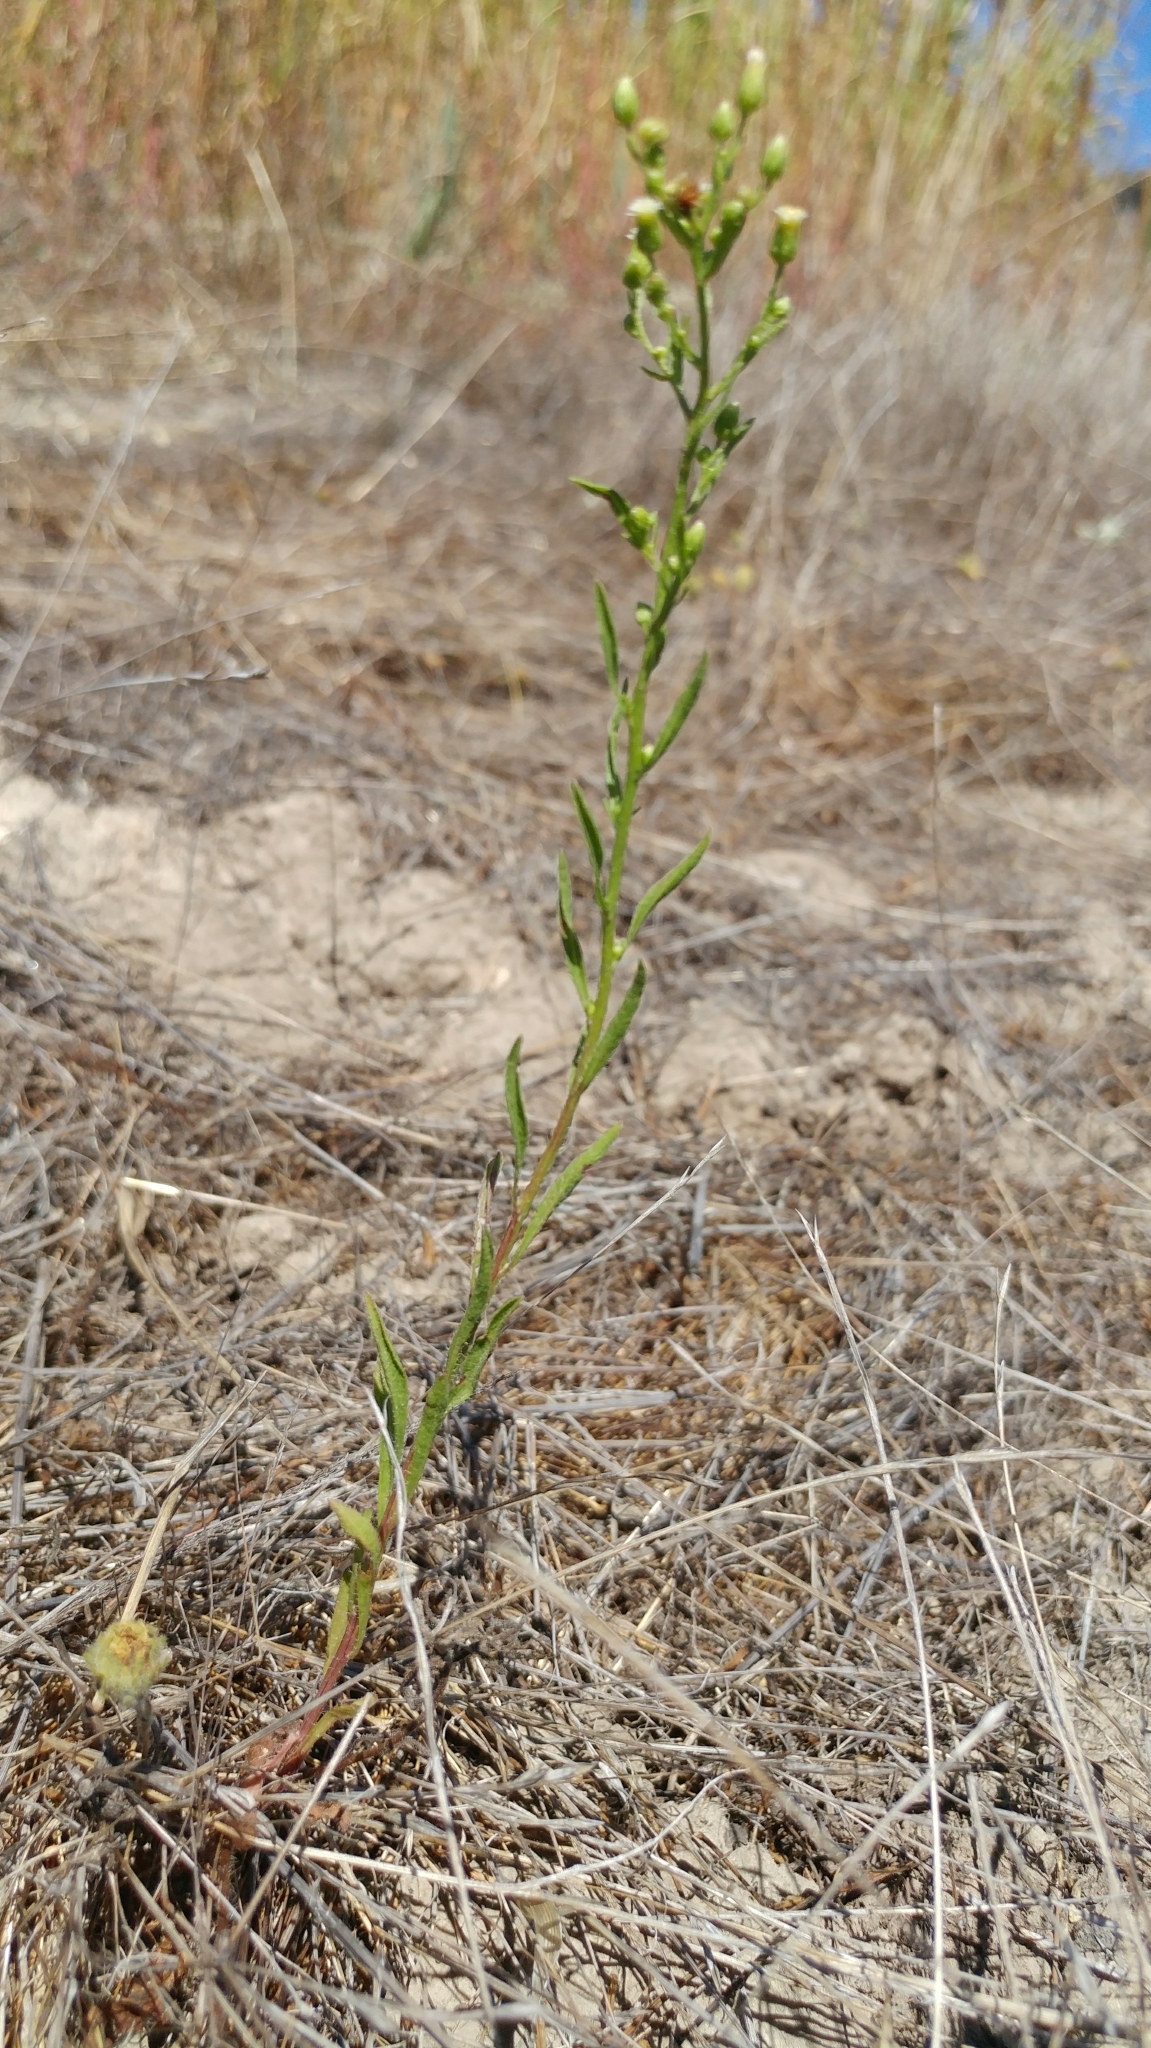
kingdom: Plantae
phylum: Tracheophyta
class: Magnoliopsida
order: Asterales
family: Asteraceae
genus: Erigeron
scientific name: Erigeron canadensis
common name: Canadian fleabane
